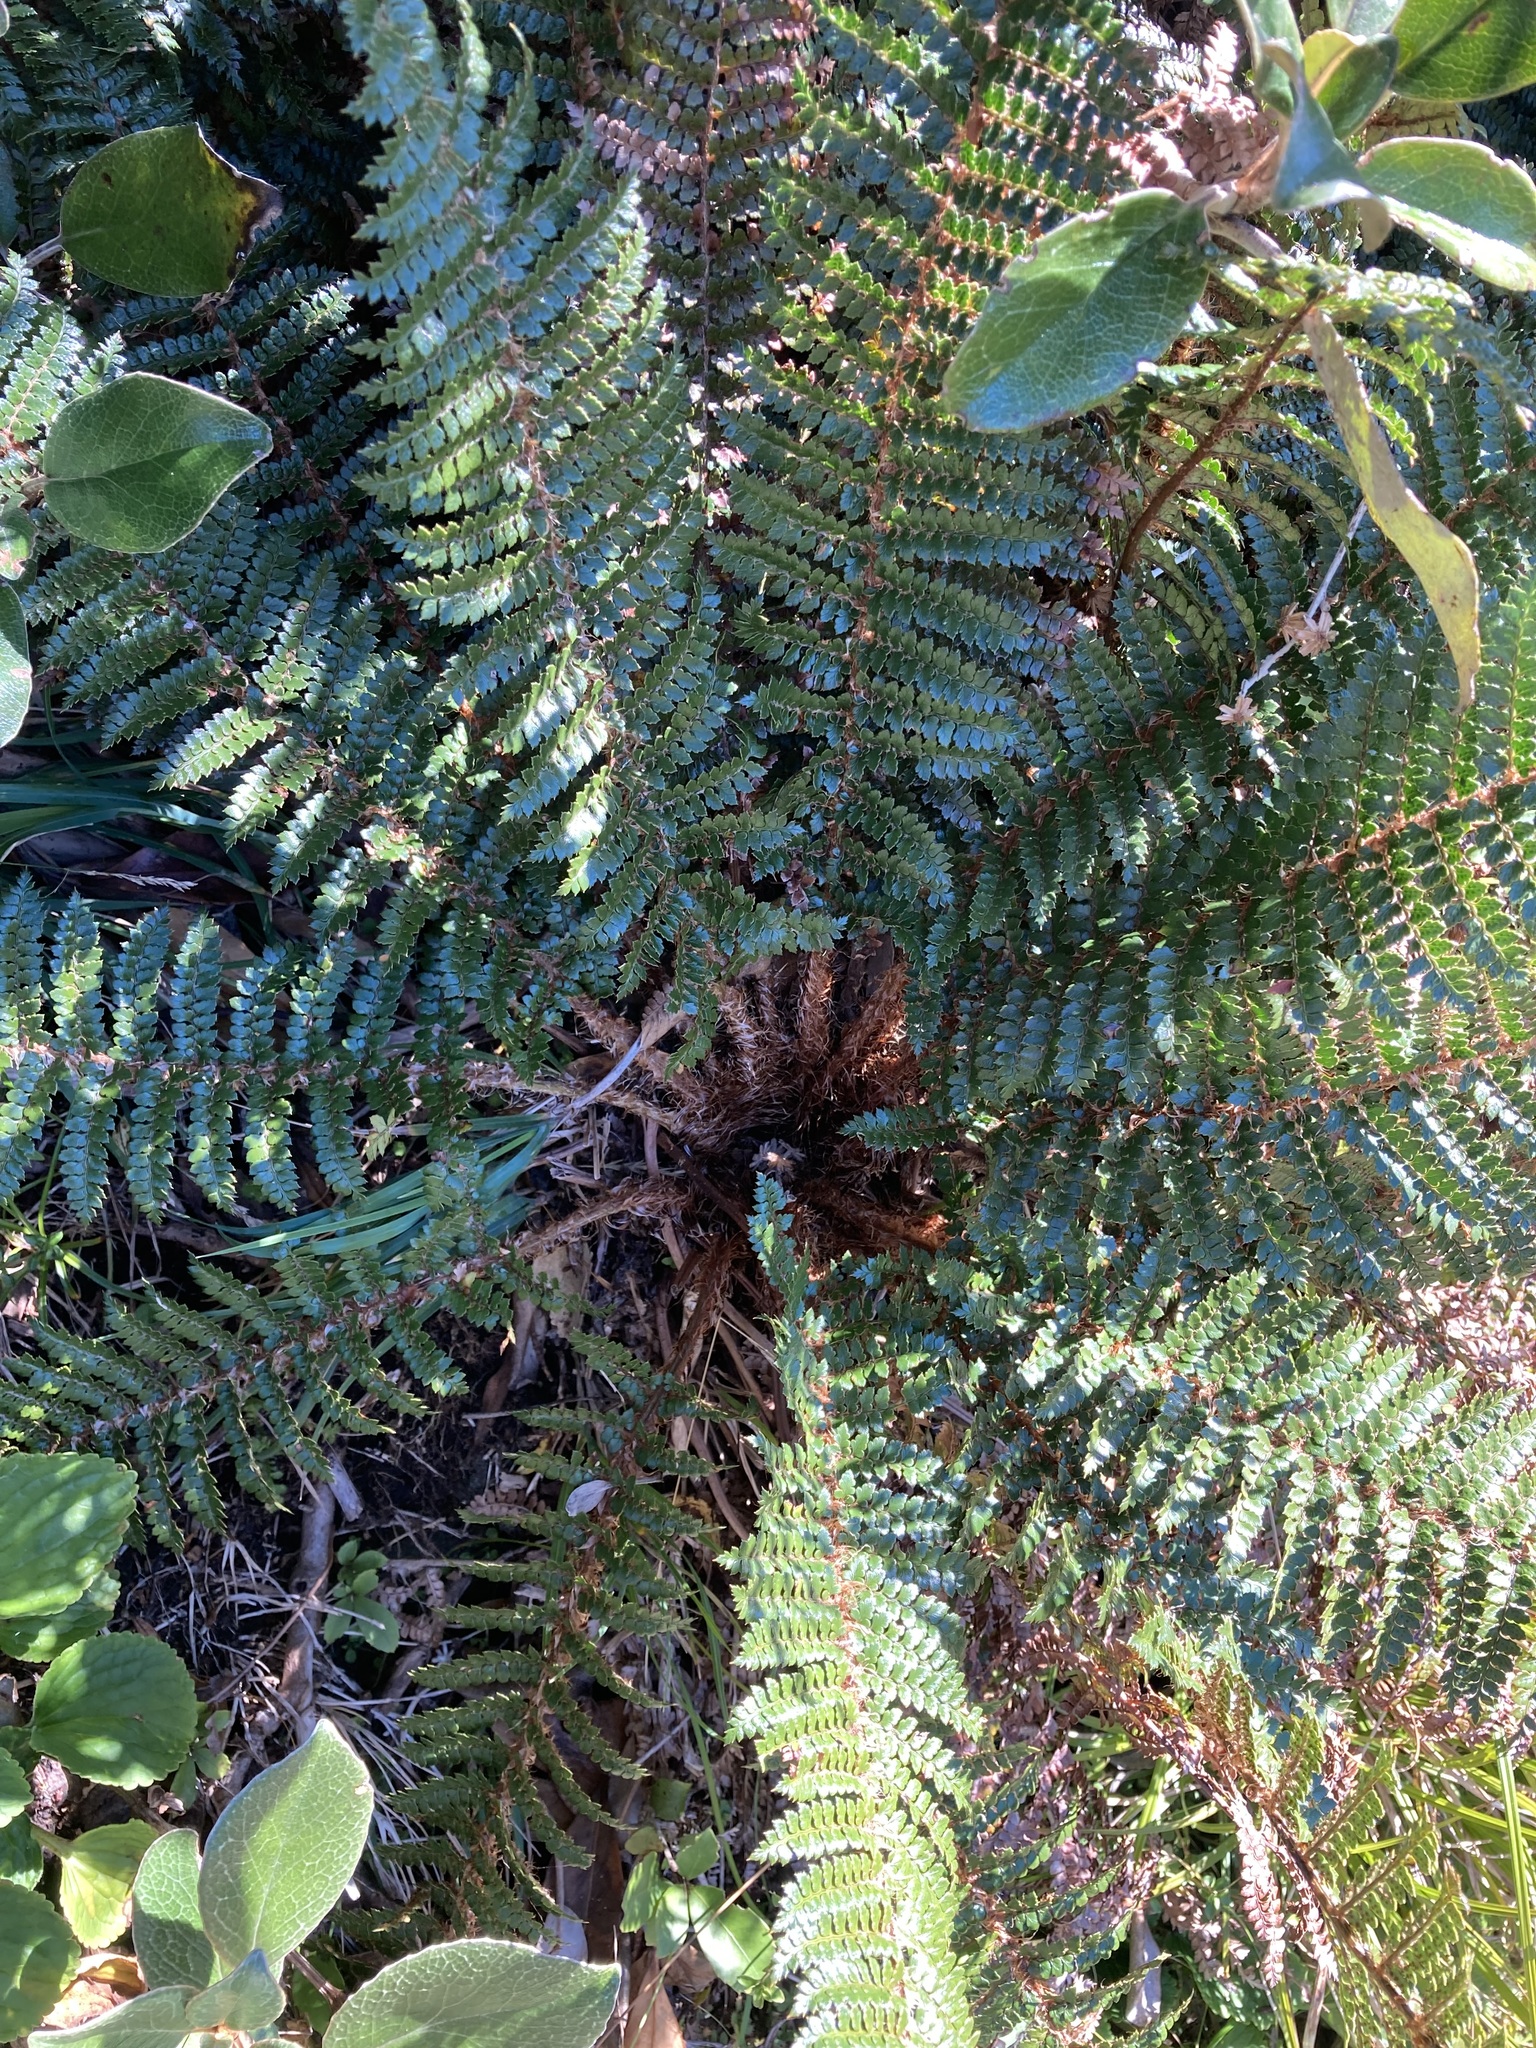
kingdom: Plantae
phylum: Tracheophyta
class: Polypodiopsida
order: Polypodiales
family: Dryopteridaceae
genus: Polystichum
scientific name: Polystichum vestitum
